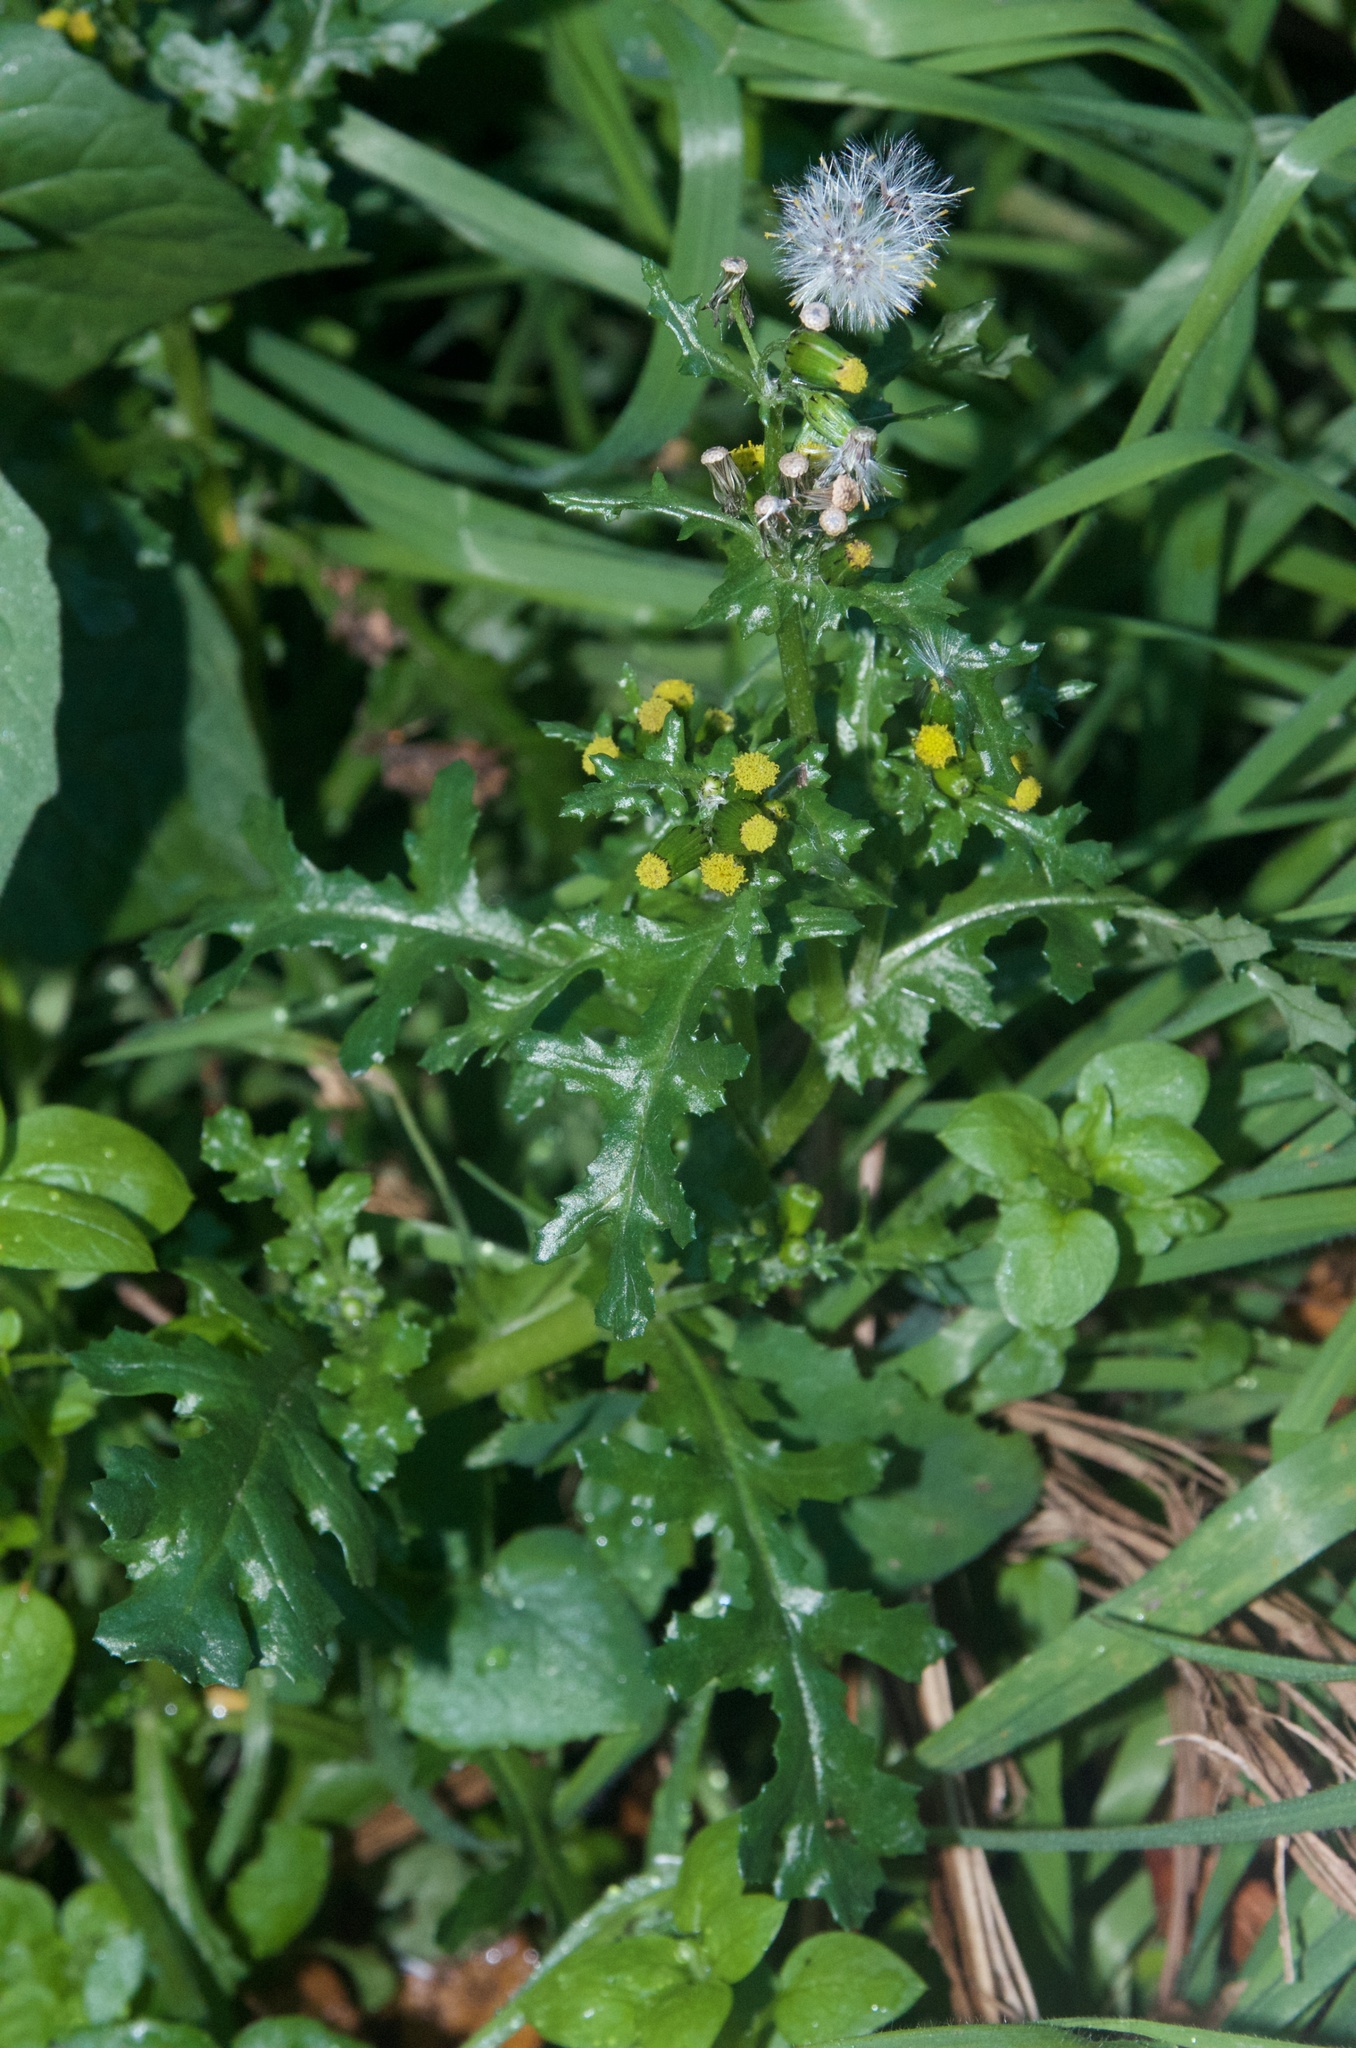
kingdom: Plantae
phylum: Tracheophyta
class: Magnoliopsida
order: Asterales
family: Asteraceae
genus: Senecio
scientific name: Senecio vulgaris
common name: Old-man-in-the-spring
